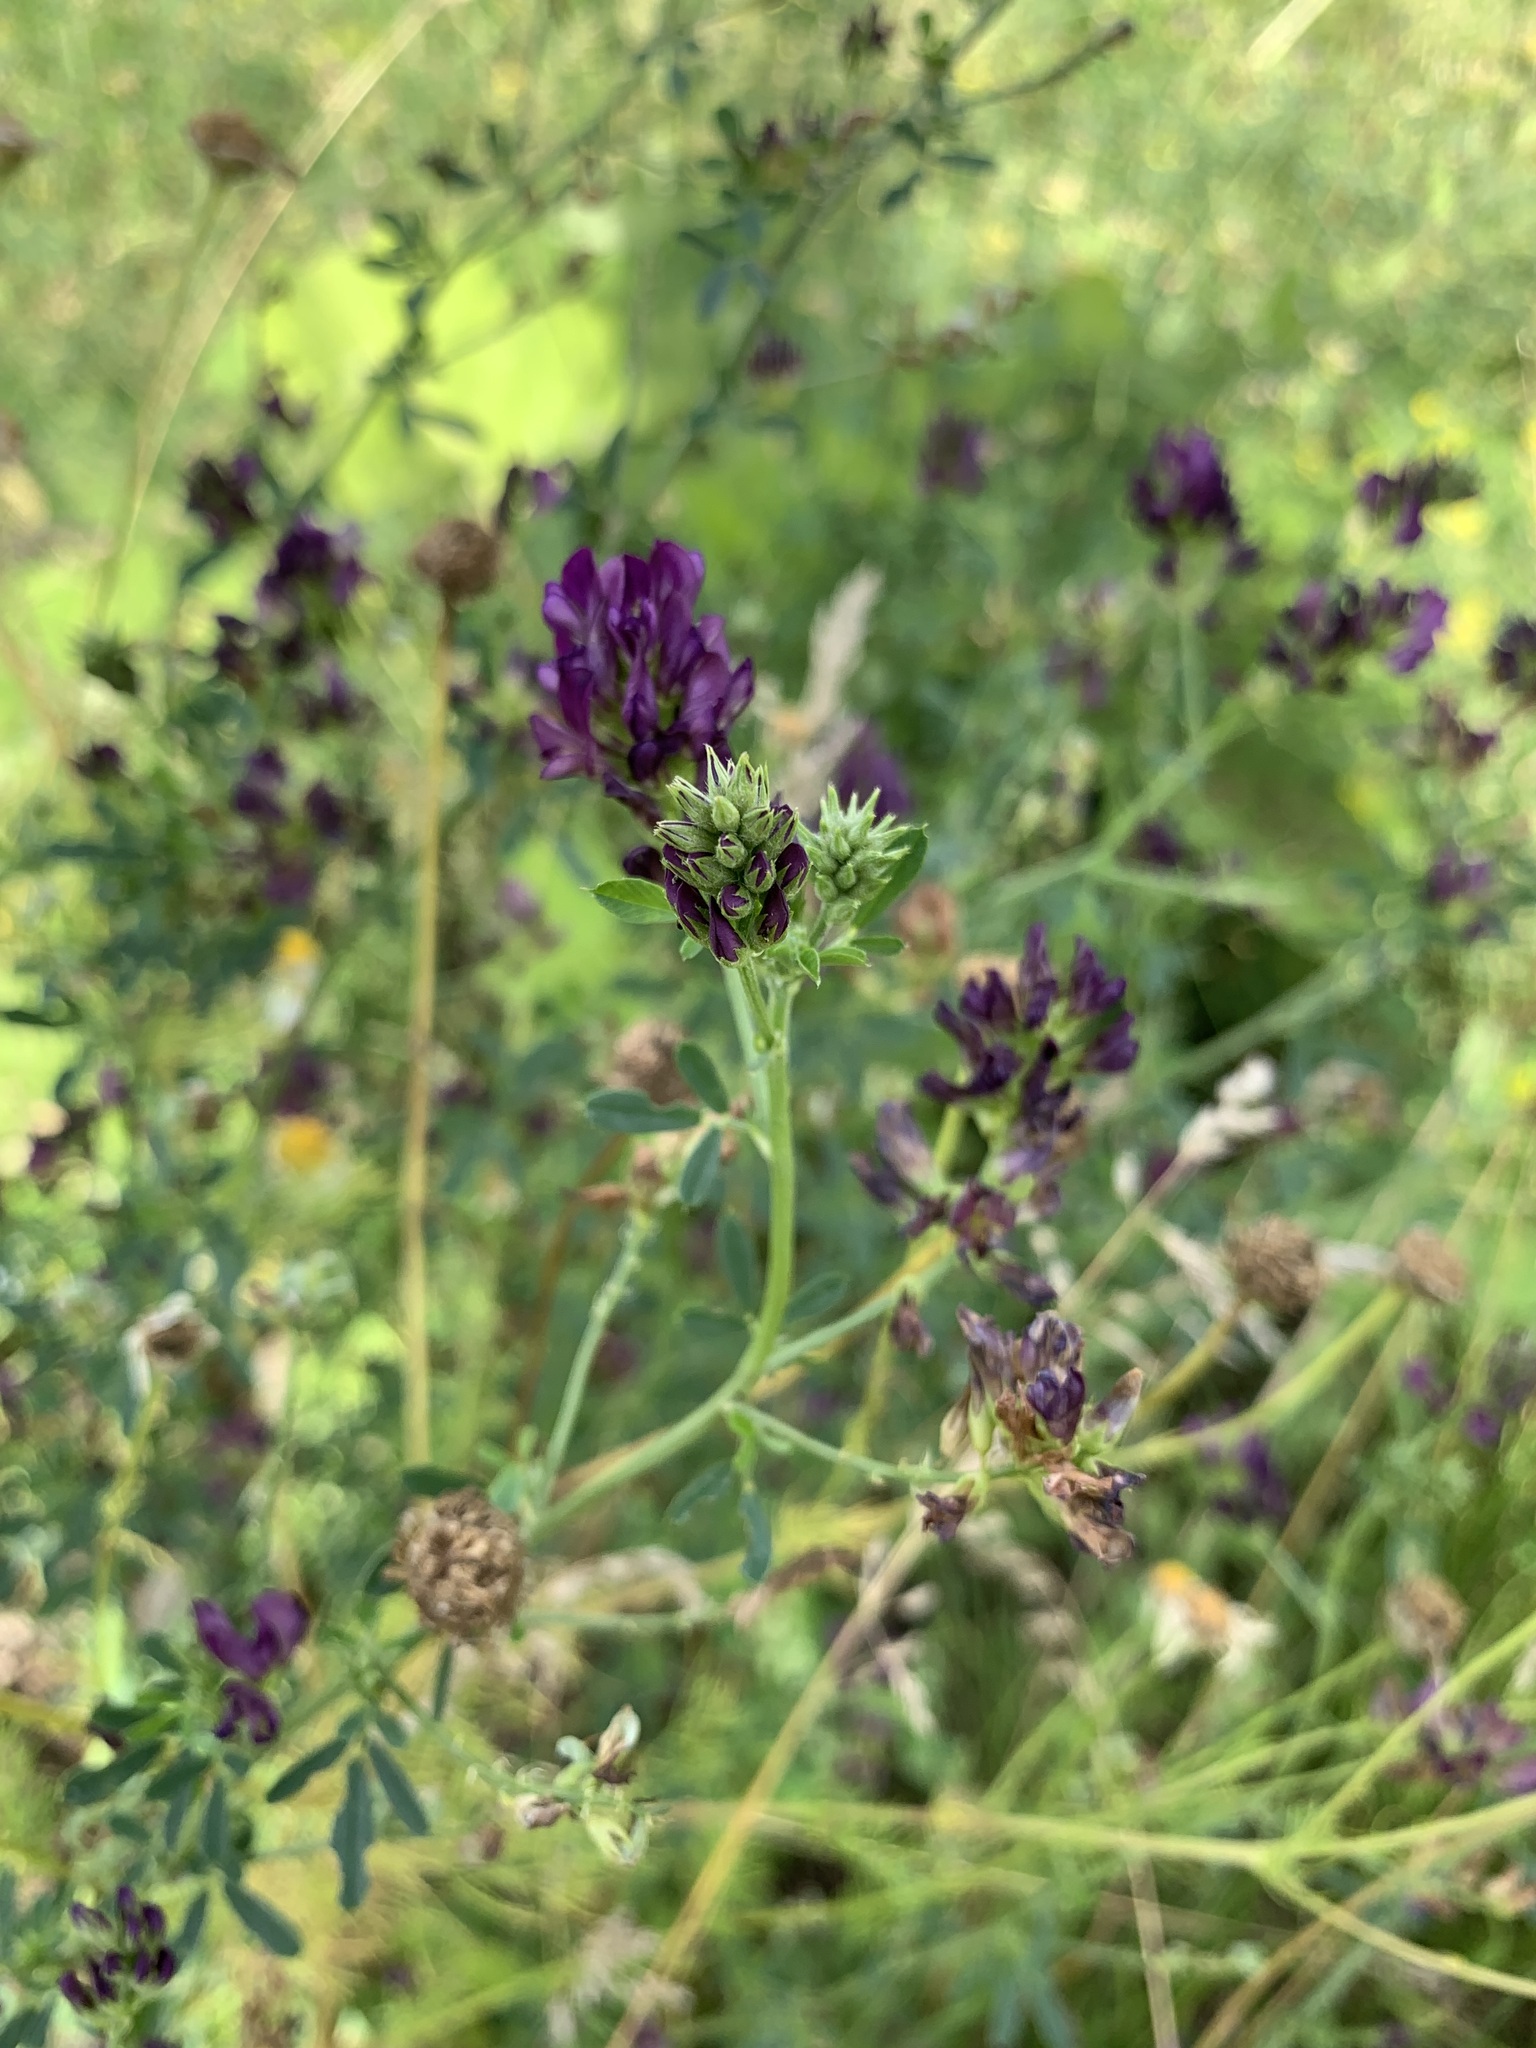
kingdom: Plantae
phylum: Tracheophyta
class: Magnoliopsida
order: Fabales
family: Fabaceae
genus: Medicago
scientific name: Medicago sativa
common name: Alfalfa
